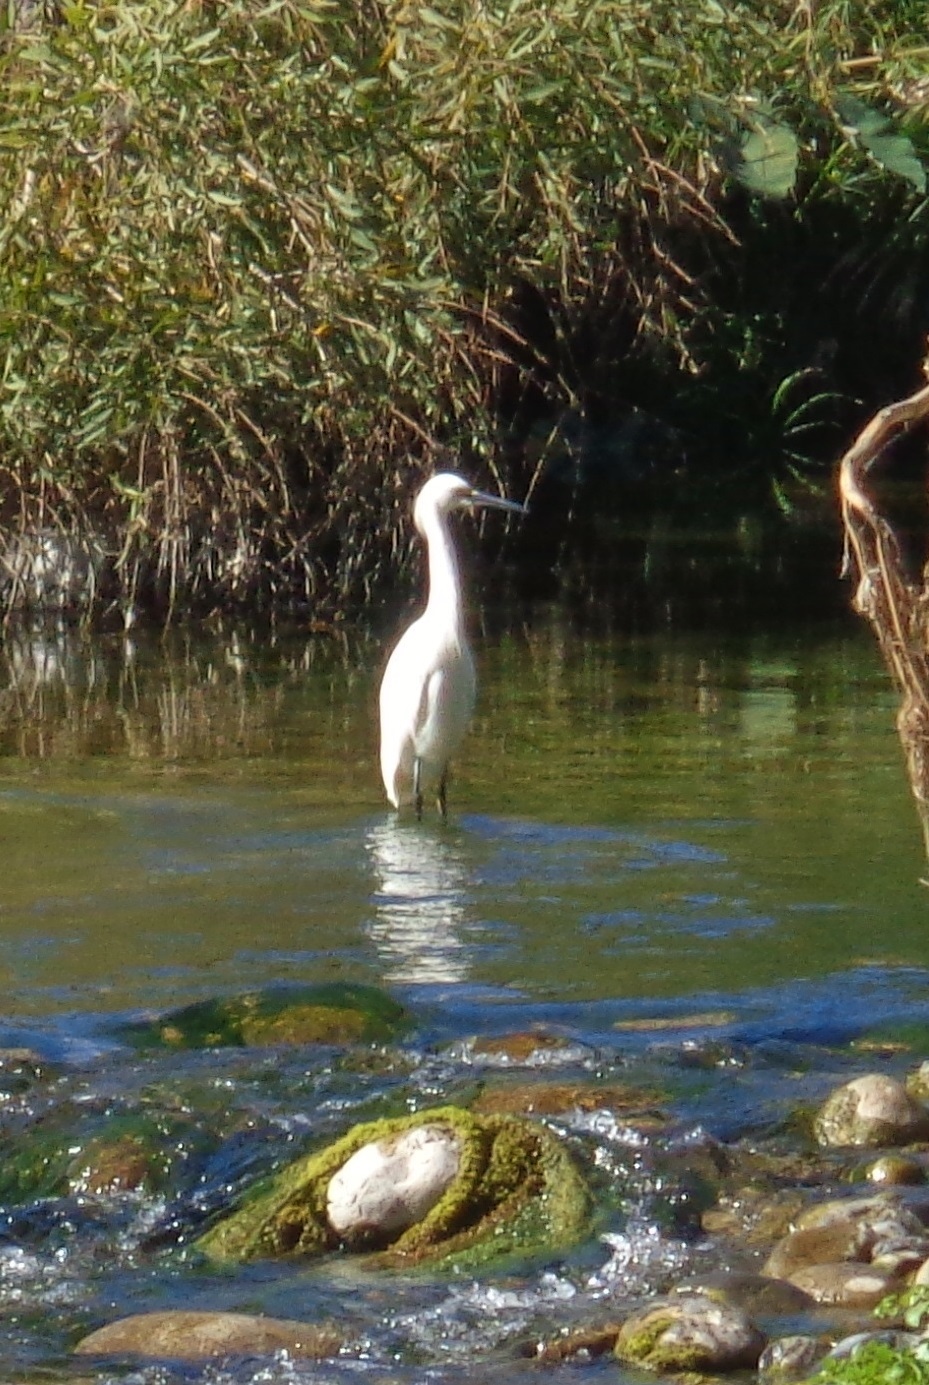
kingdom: Animalia
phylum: Chordata
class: Aves
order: Pelecaniformes
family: Ardeidae
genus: Egretta
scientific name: Egretta thula
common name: Snowy egret
